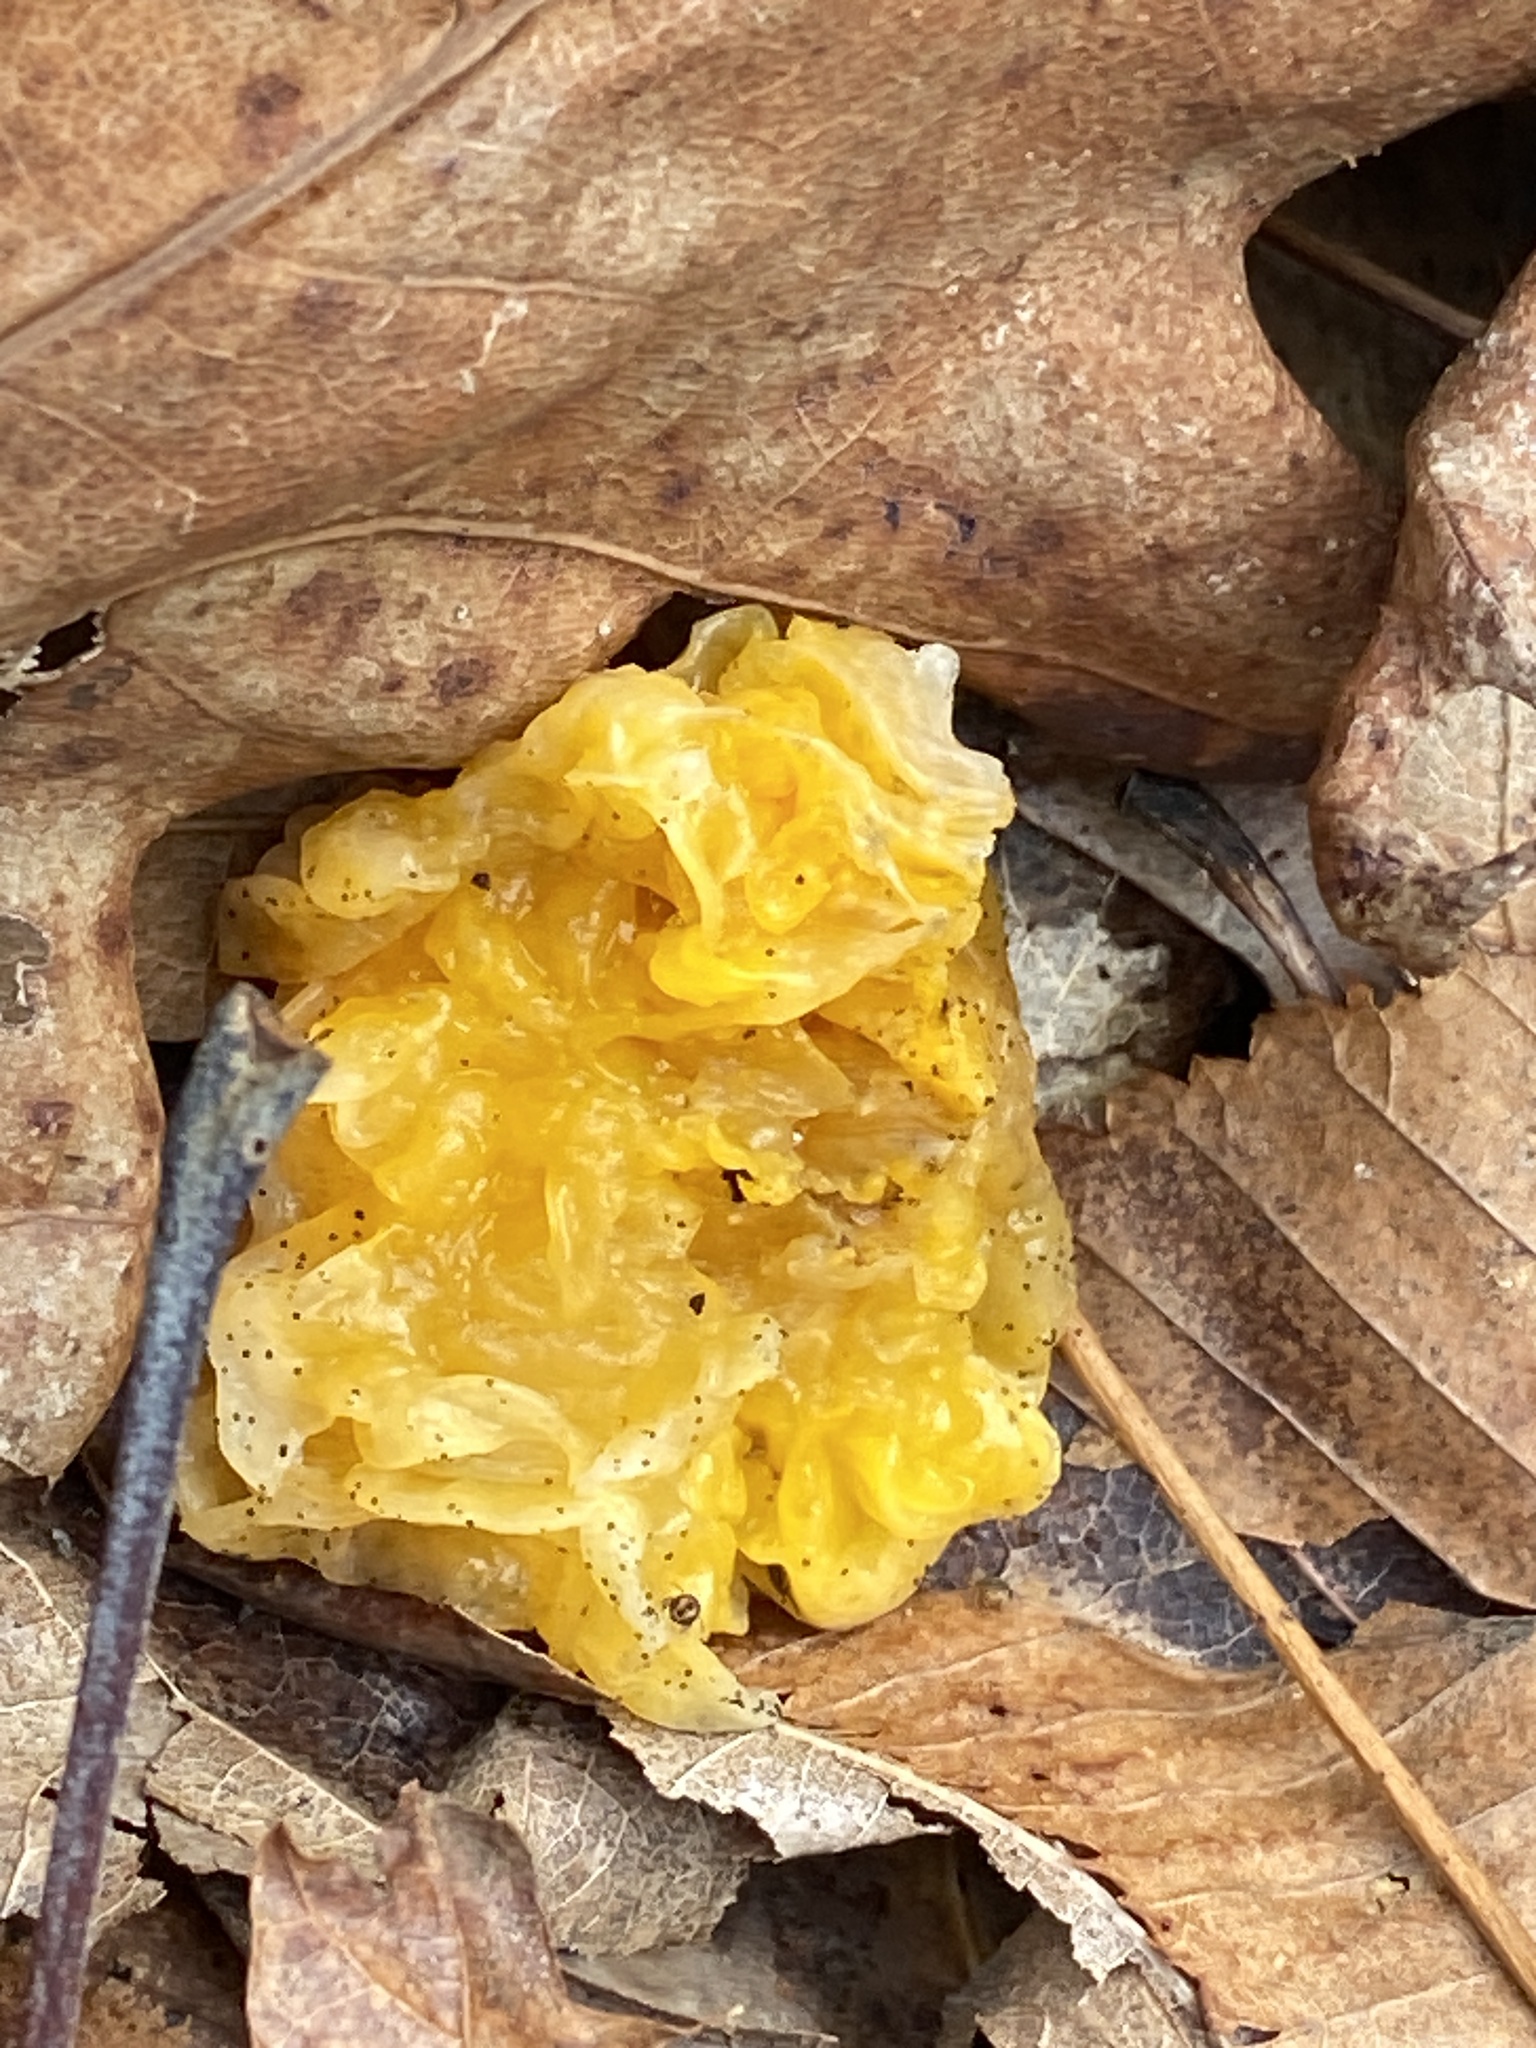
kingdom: Fungi
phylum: Basidiomycota
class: Tremellomycetes
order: Tremellales
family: Naemateliaceae
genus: Naematelia
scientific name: Naematelia aurantia
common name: Golden ear
